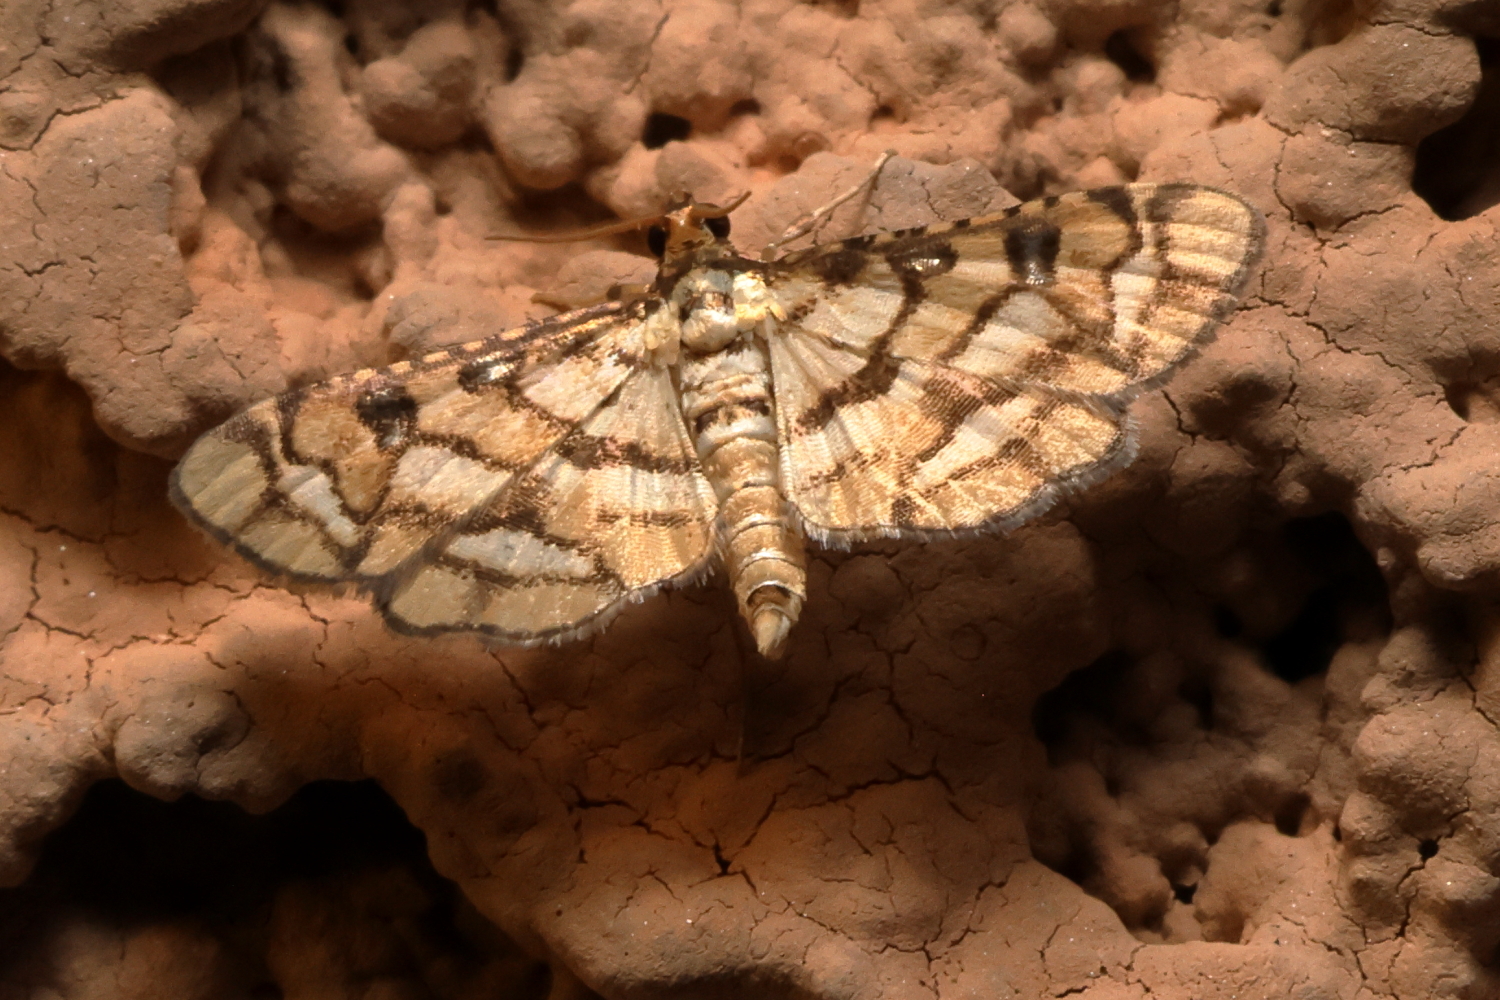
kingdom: Animalia
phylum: Arthropoda
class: Insecta
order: Lepidoptera
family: Crambidae
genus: Hileithia
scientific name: Hileithia magualis
